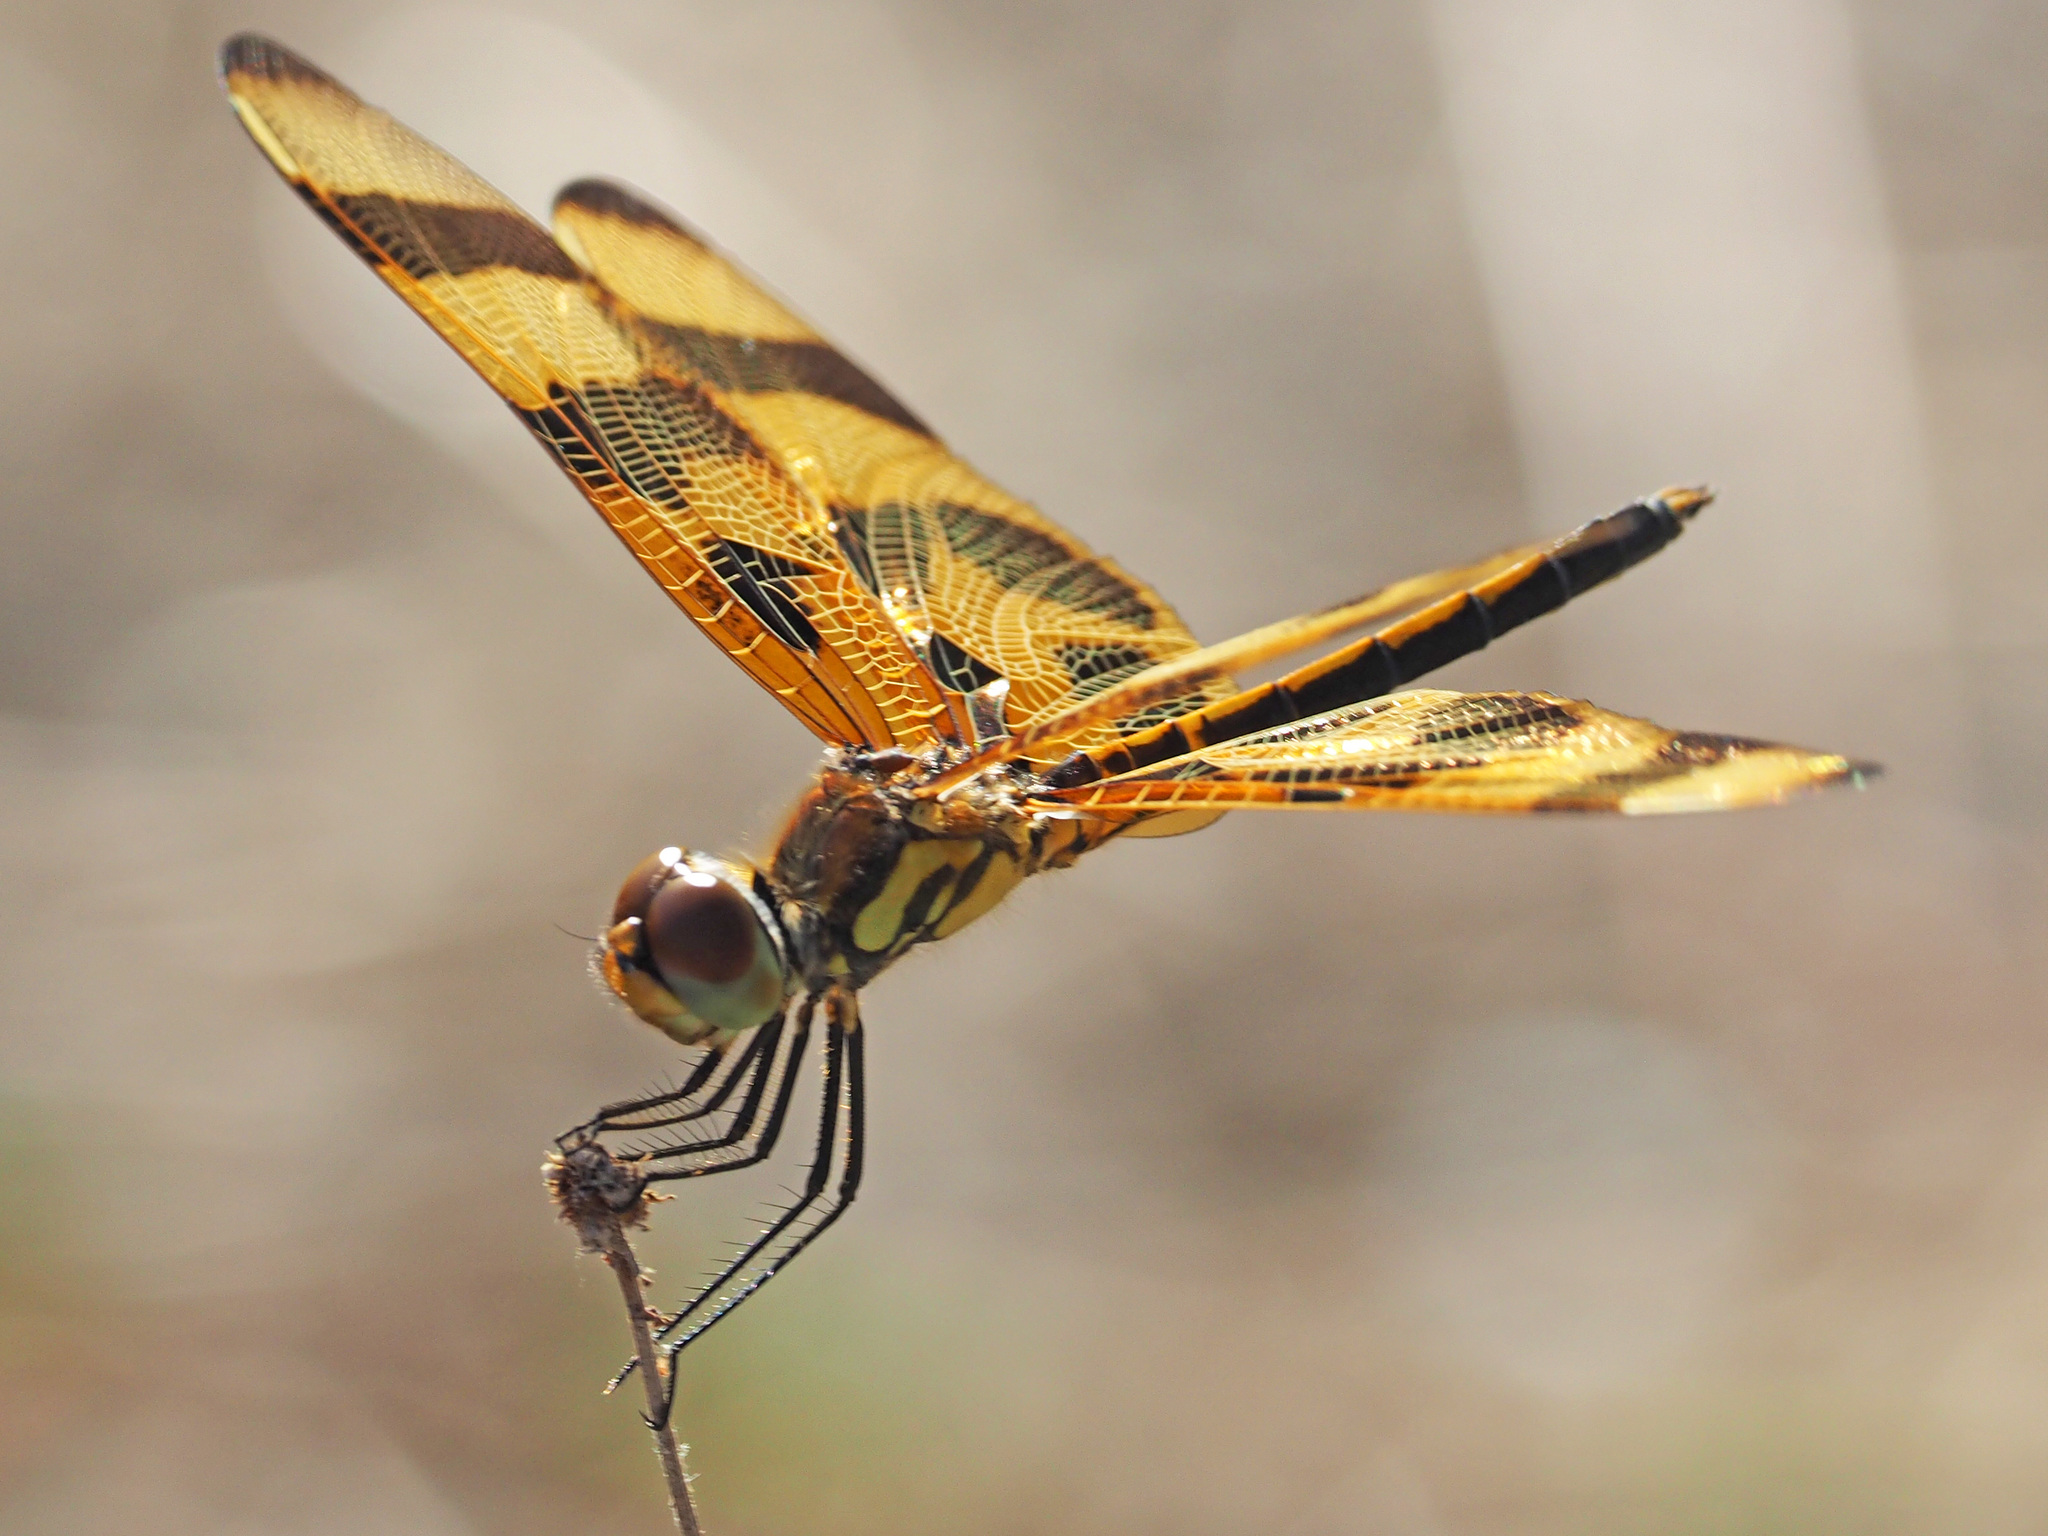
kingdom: Animalia
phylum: Arthropoda
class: Insecta
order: Odonata
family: Libellulidae
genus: Celithemis
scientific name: Celithemis eponina
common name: Halloween pennant
